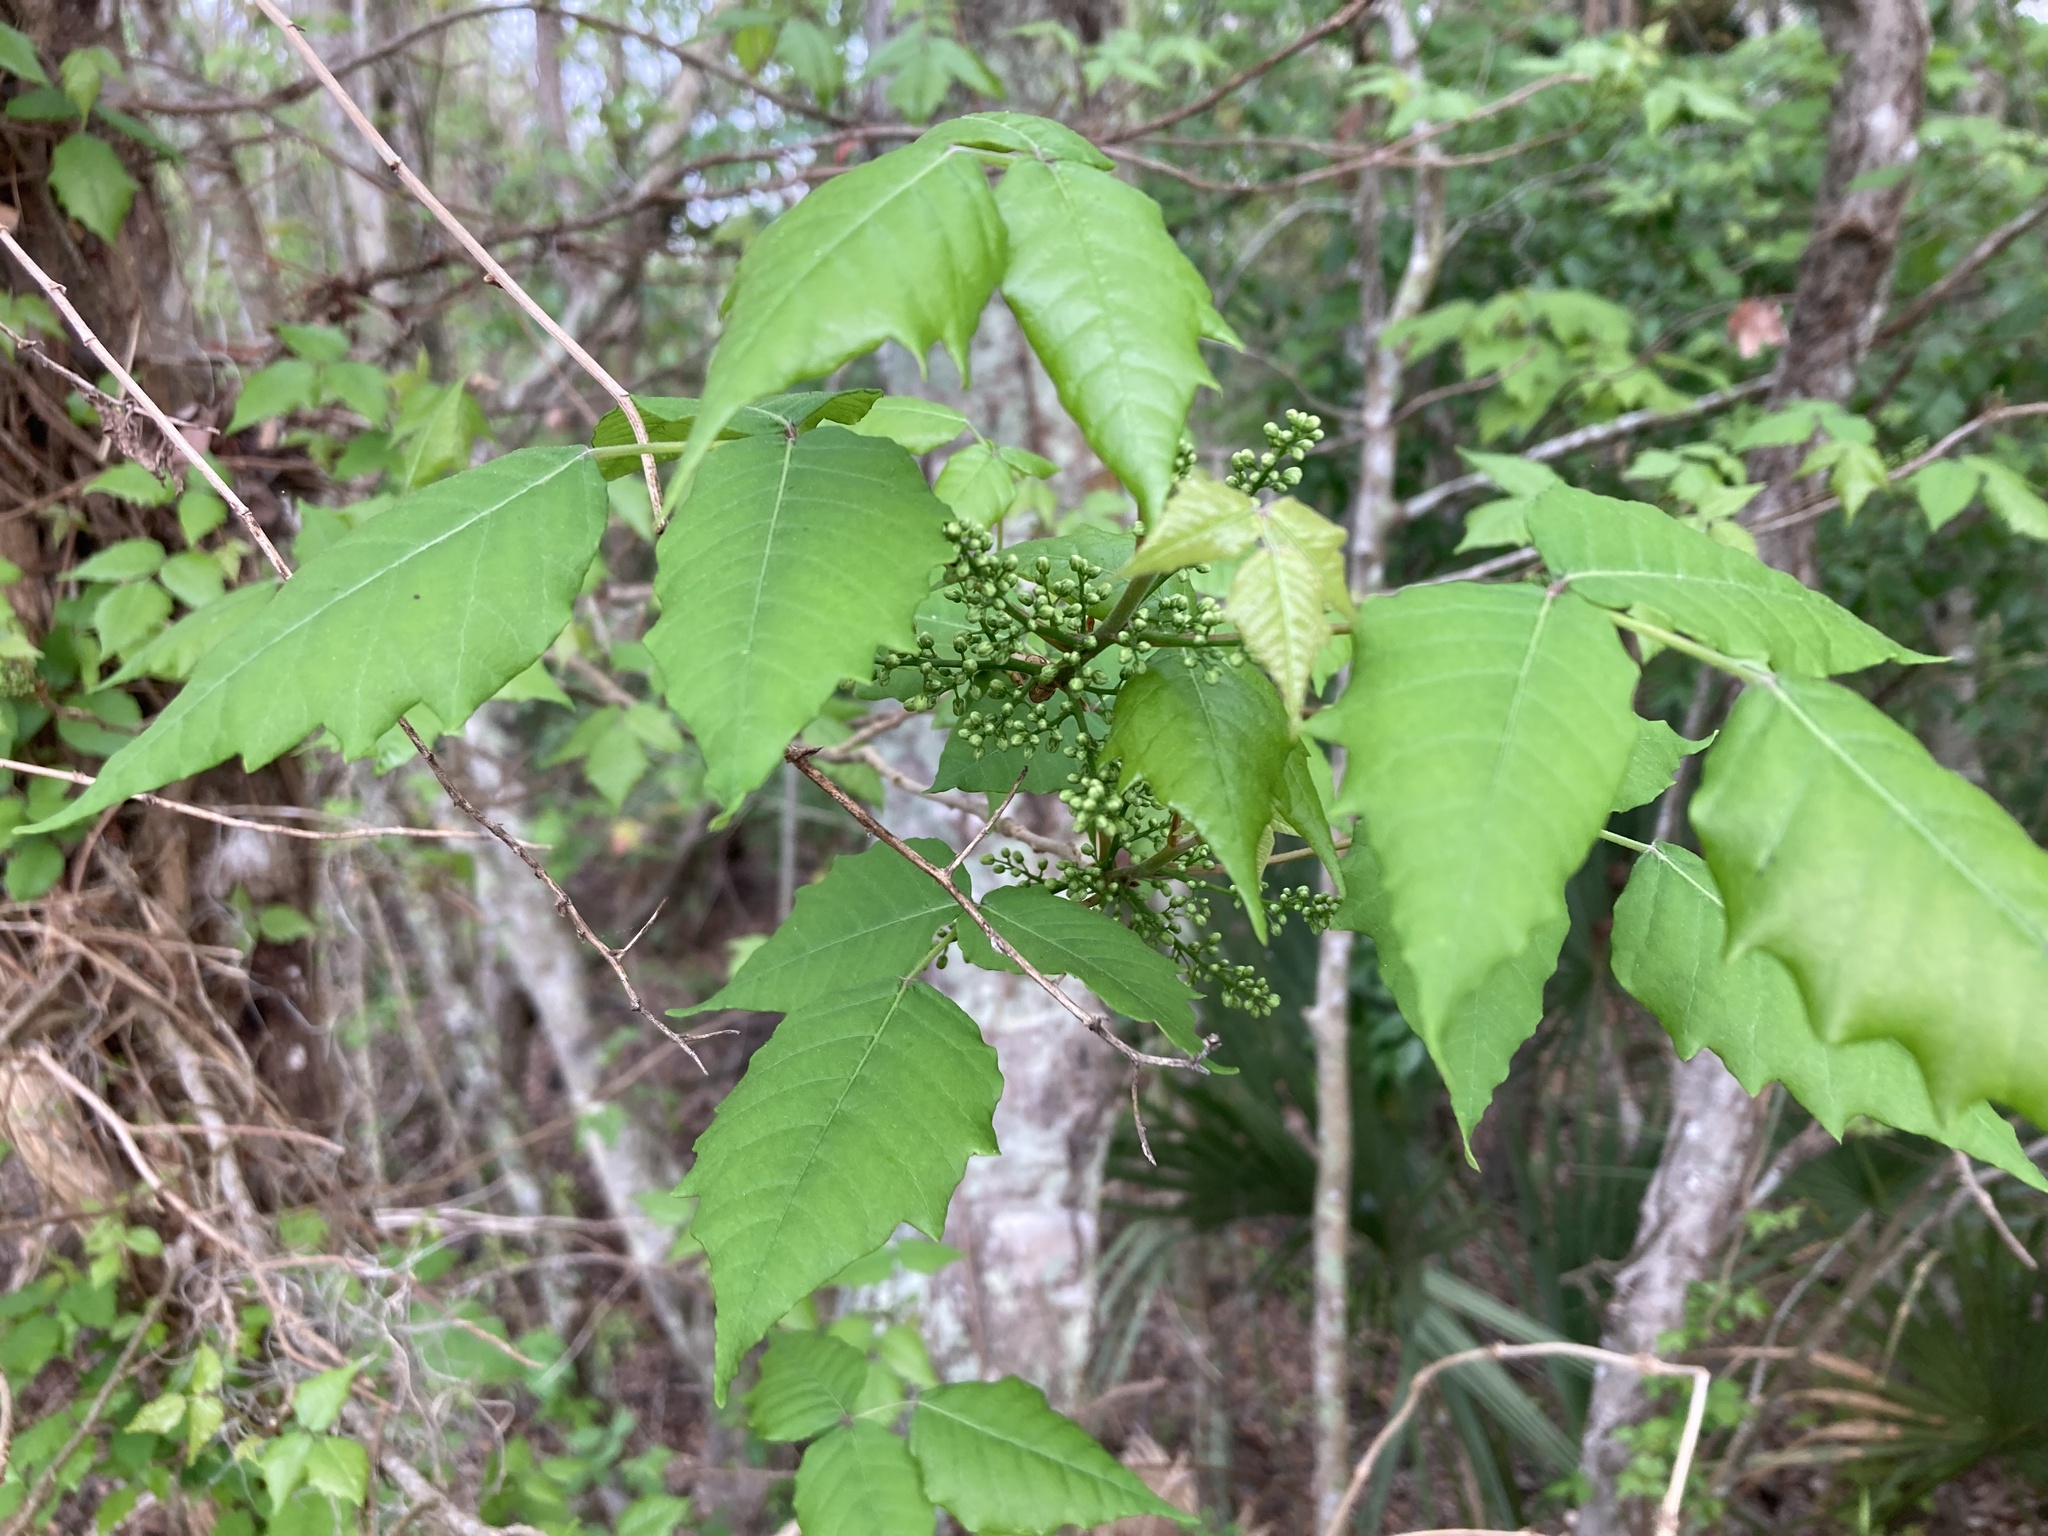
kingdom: Plantae
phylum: Tracheophyta
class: Magnoliopsida
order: Sapindales
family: Anacardiaceae
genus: Toxicodendron
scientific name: Toxicodendron radicans
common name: Poison ivy
